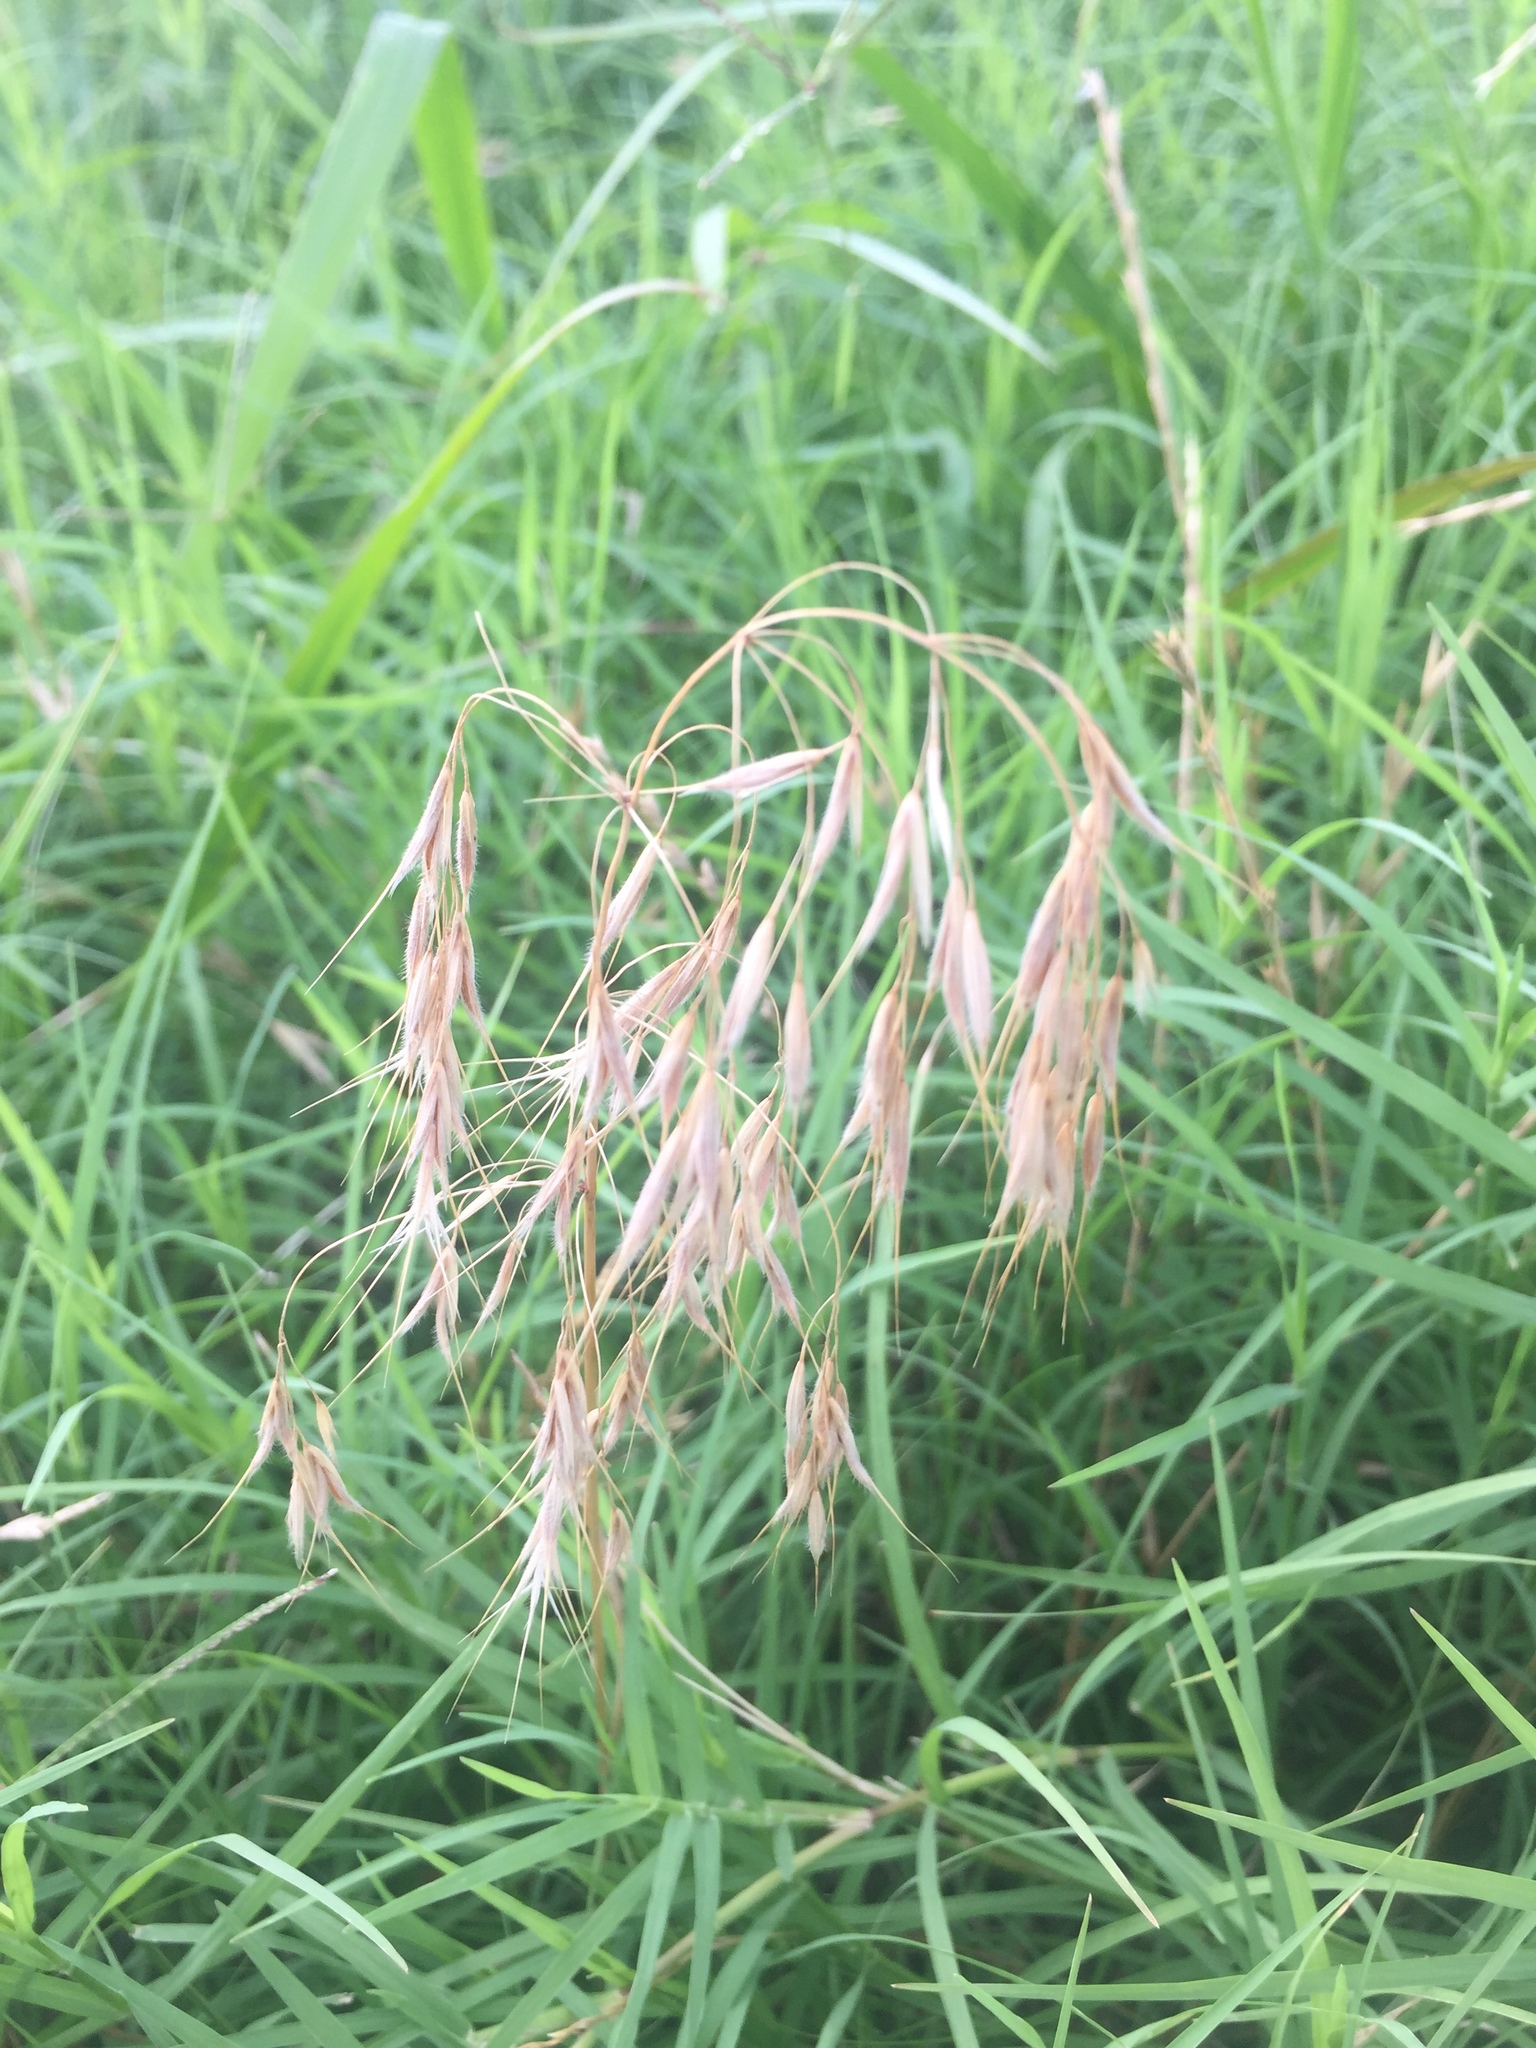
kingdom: Plantae
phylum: Tracheophyta
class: Liliopsida
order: Poales
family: Poaceae
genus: Bromus
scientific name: Bromus tectorum
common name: Cheatgrass
